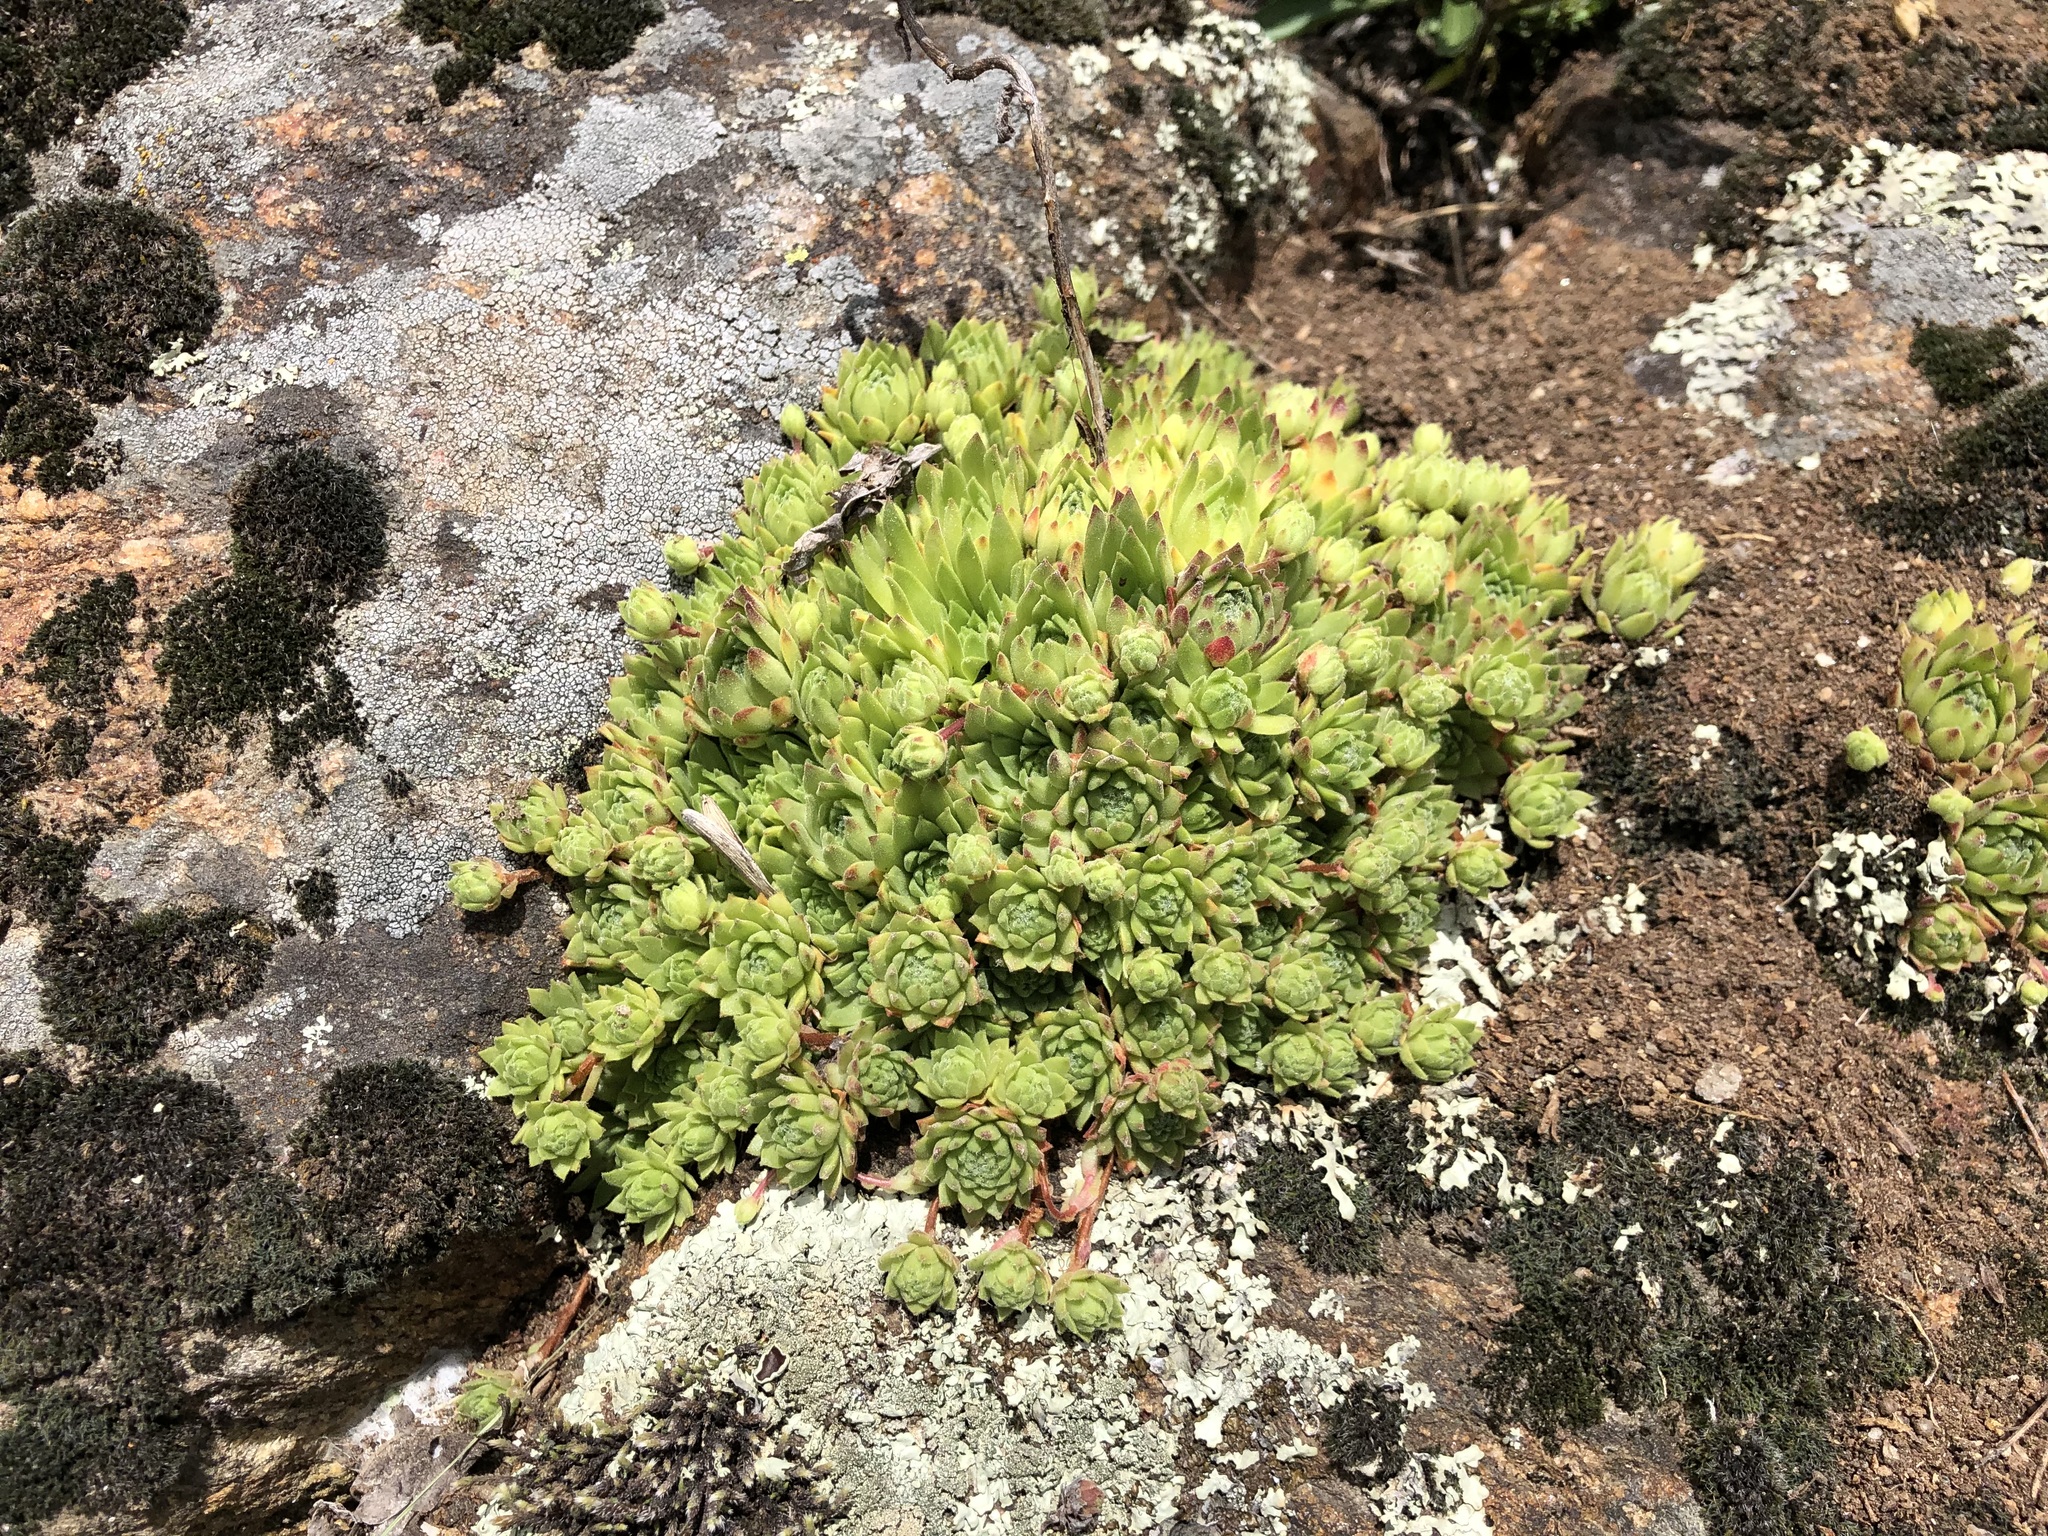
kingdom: Plantae
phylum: Tracheophyta
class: Magnoliopsida
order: Saxifragales
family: Crassulaceae
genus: Sempervivum
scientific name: Sempervivum montanum
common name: Mountain house-leek
